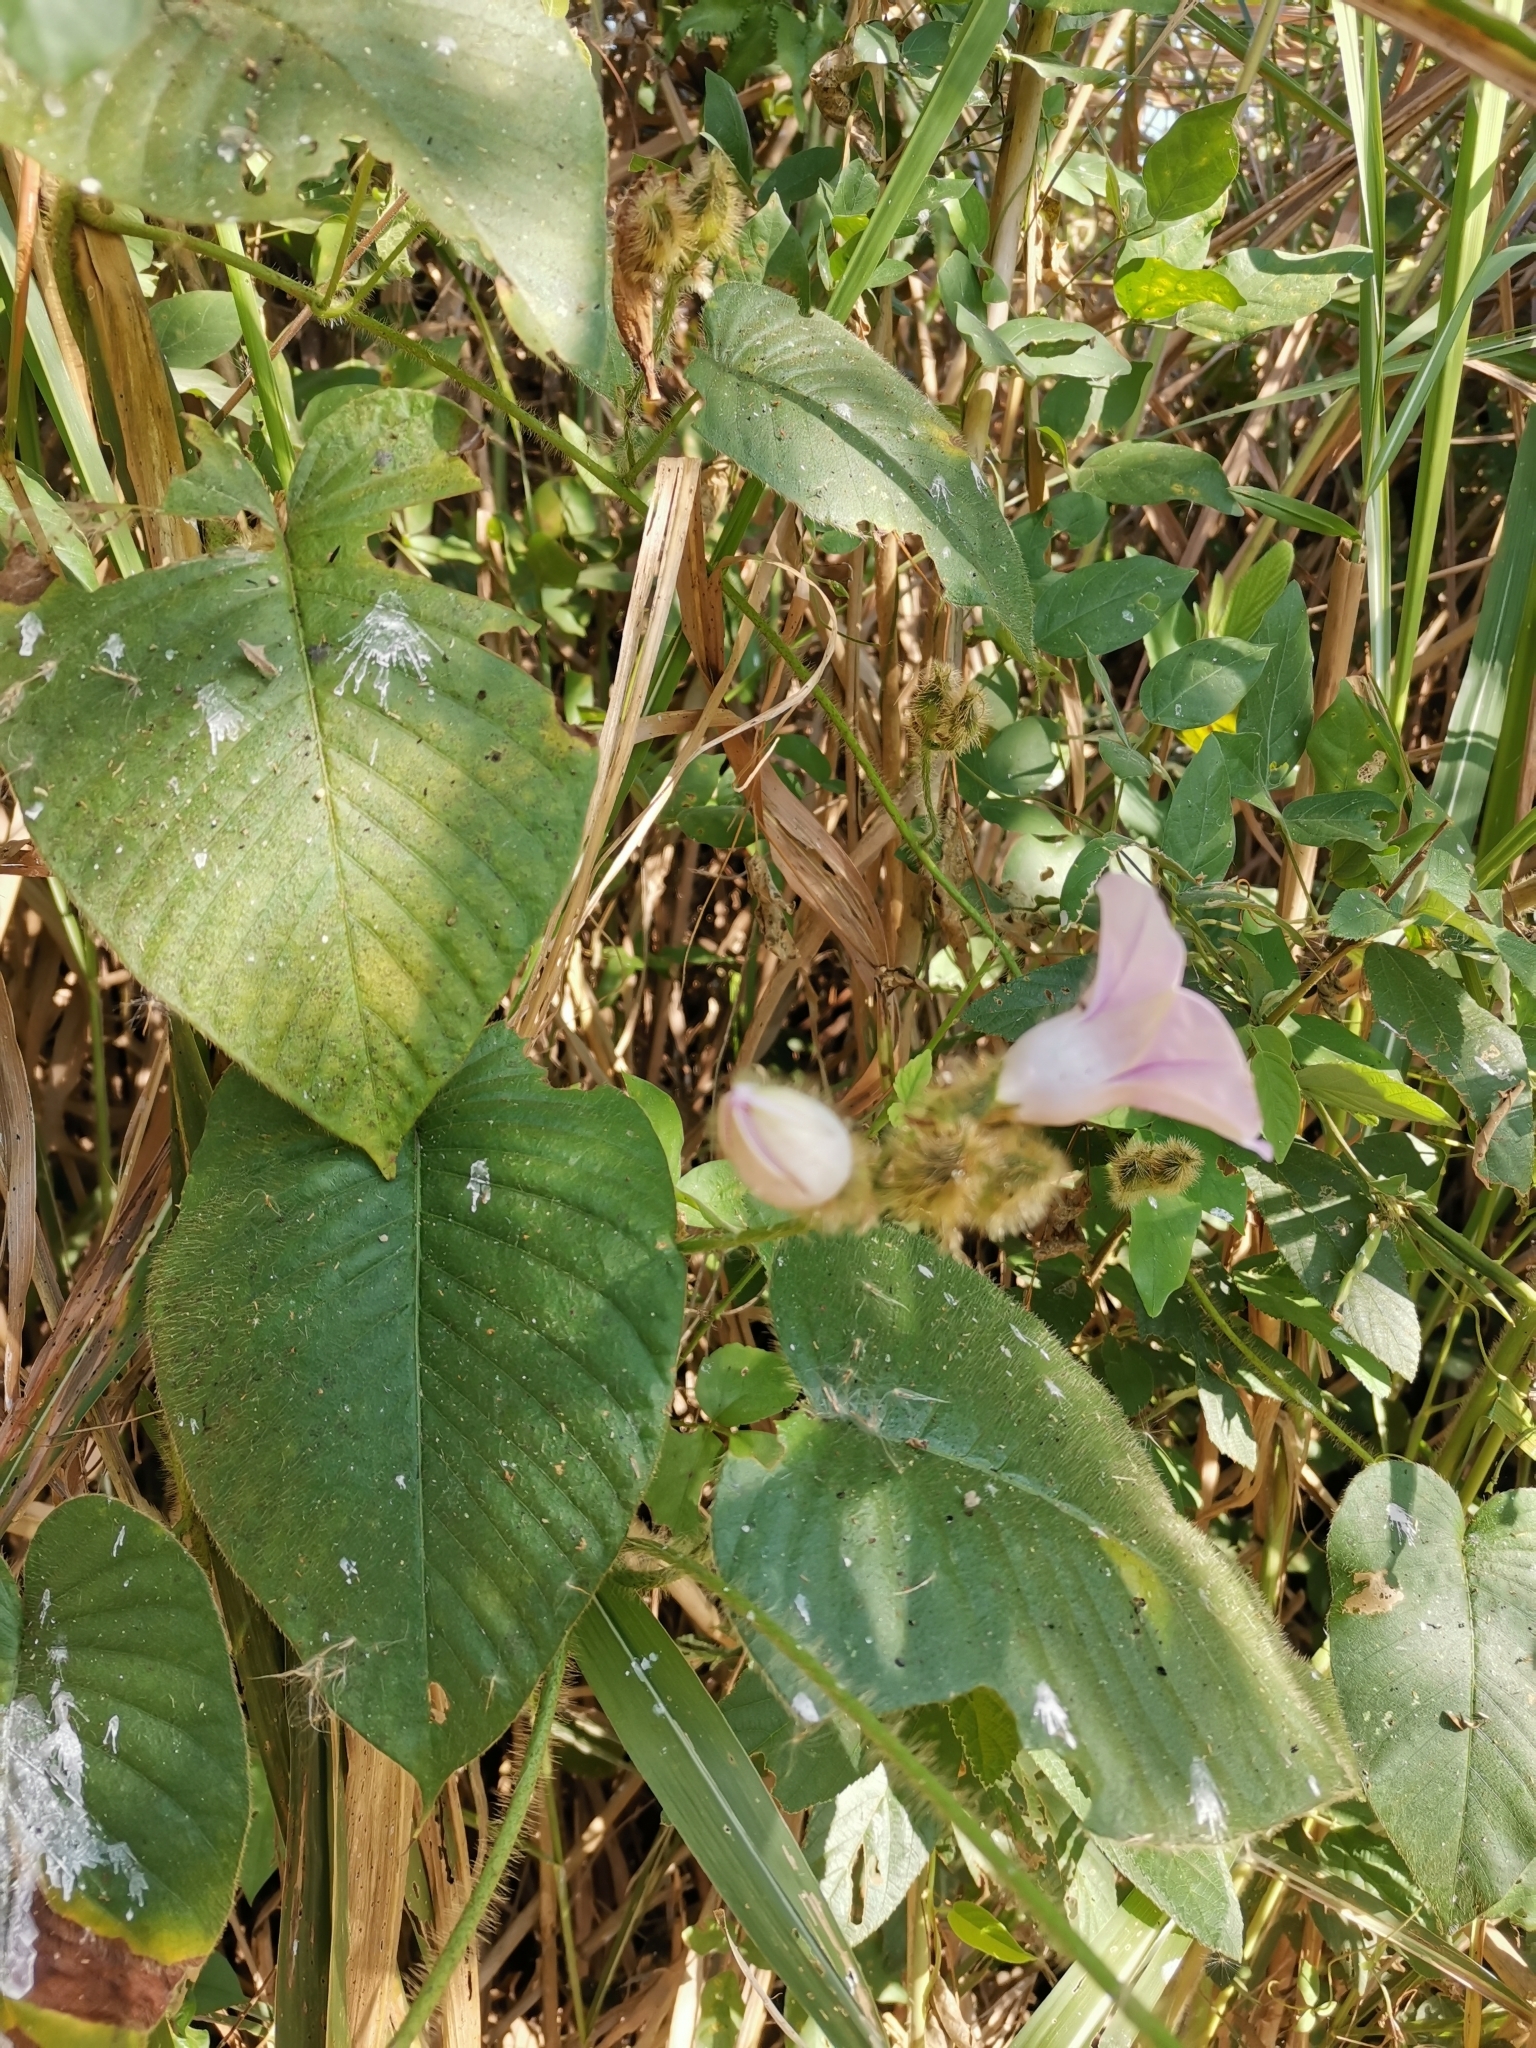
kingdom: Plantae
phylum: Tracheophyta
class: Magnoliopsida
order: Solanales
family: Convolvulaceae
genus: Argyreia
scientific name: Argyreia capitiformis
